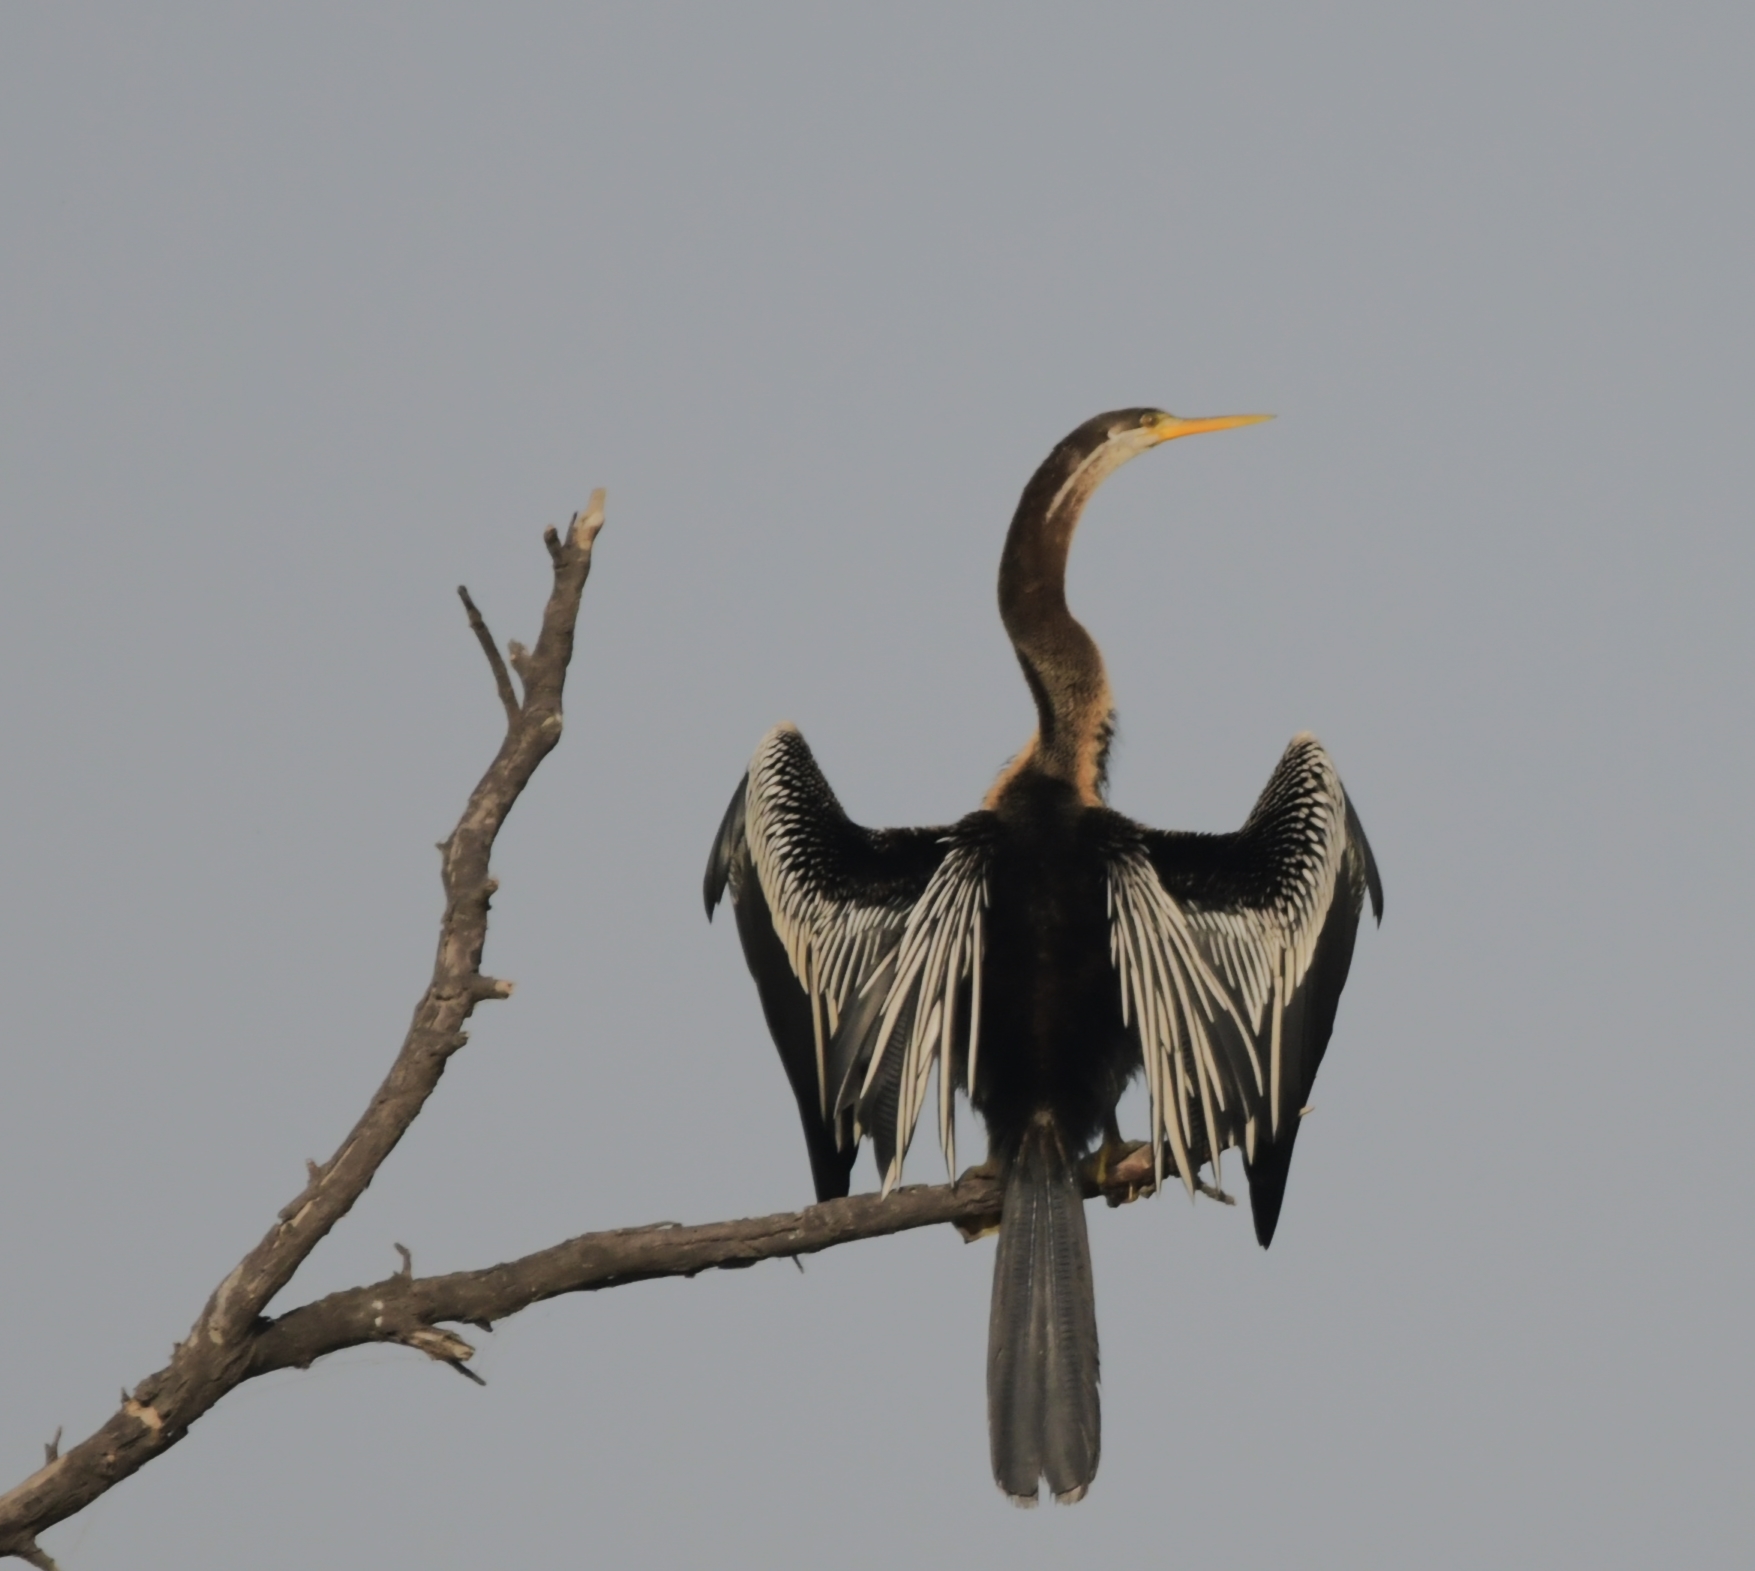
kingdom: Animalia
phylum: Chordata
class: Aves
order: Suliformes
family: Anhingidae
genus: Anhinga
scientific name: Anhinga melanogaster
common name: Oriental darter
